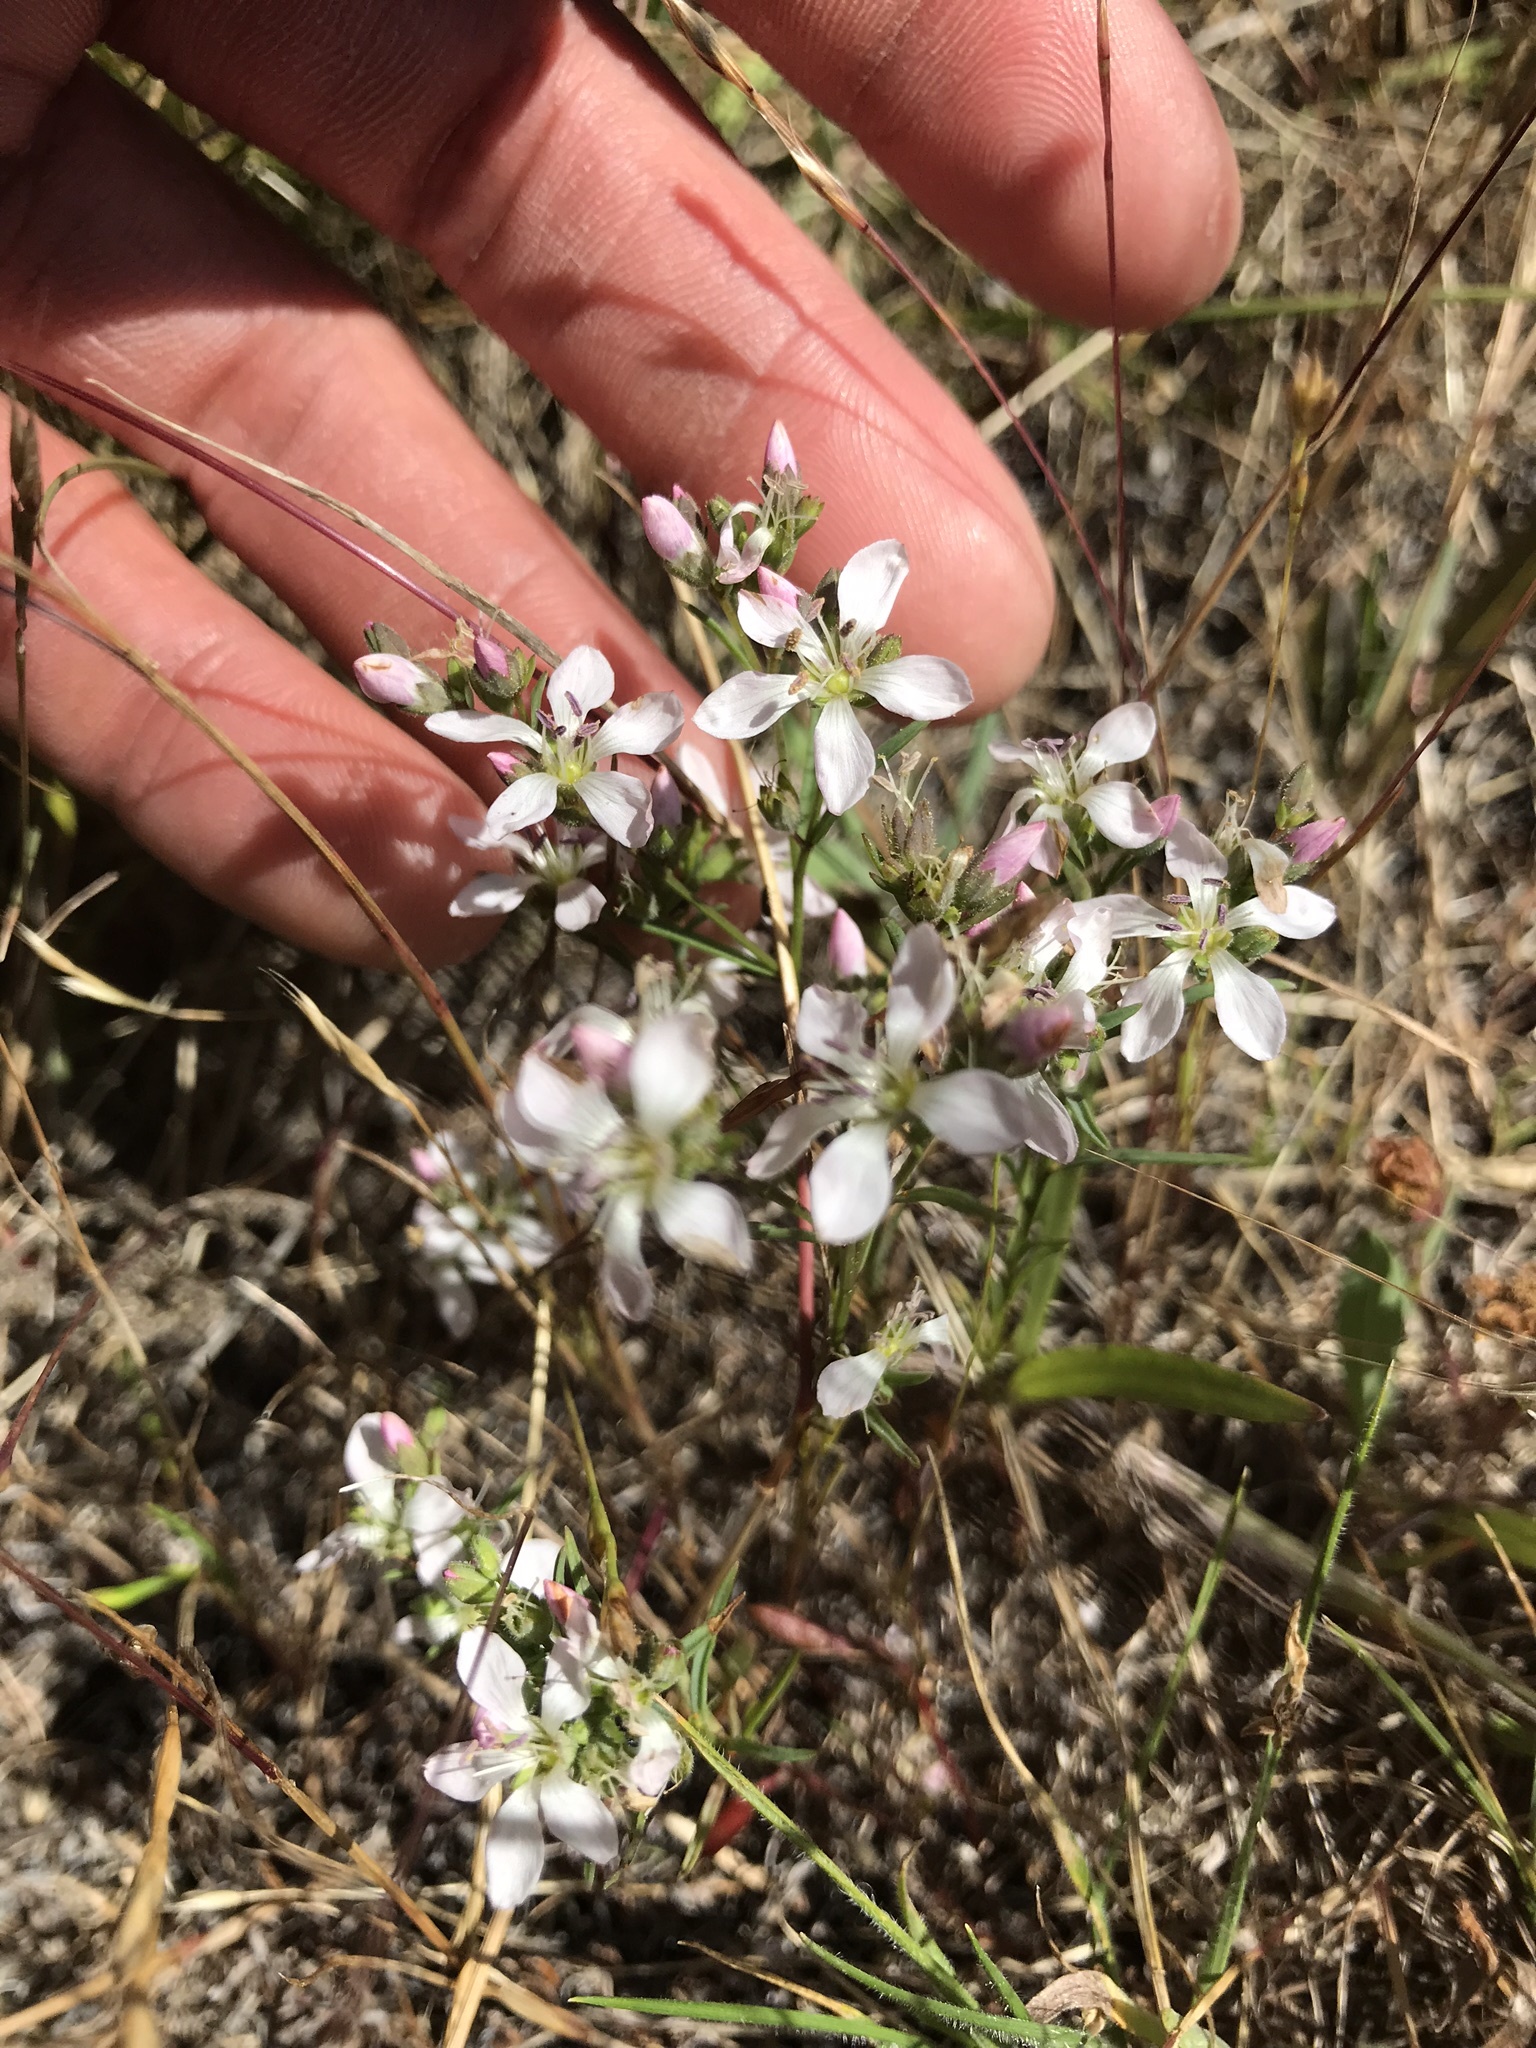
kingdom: Plantae
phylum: Tracheophyta
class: Magnoliopsida
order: Malpighiales
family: Linaceae
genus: Hesperolinon
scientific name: Hesperolinon congestum
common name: Marin dwarf-flax
